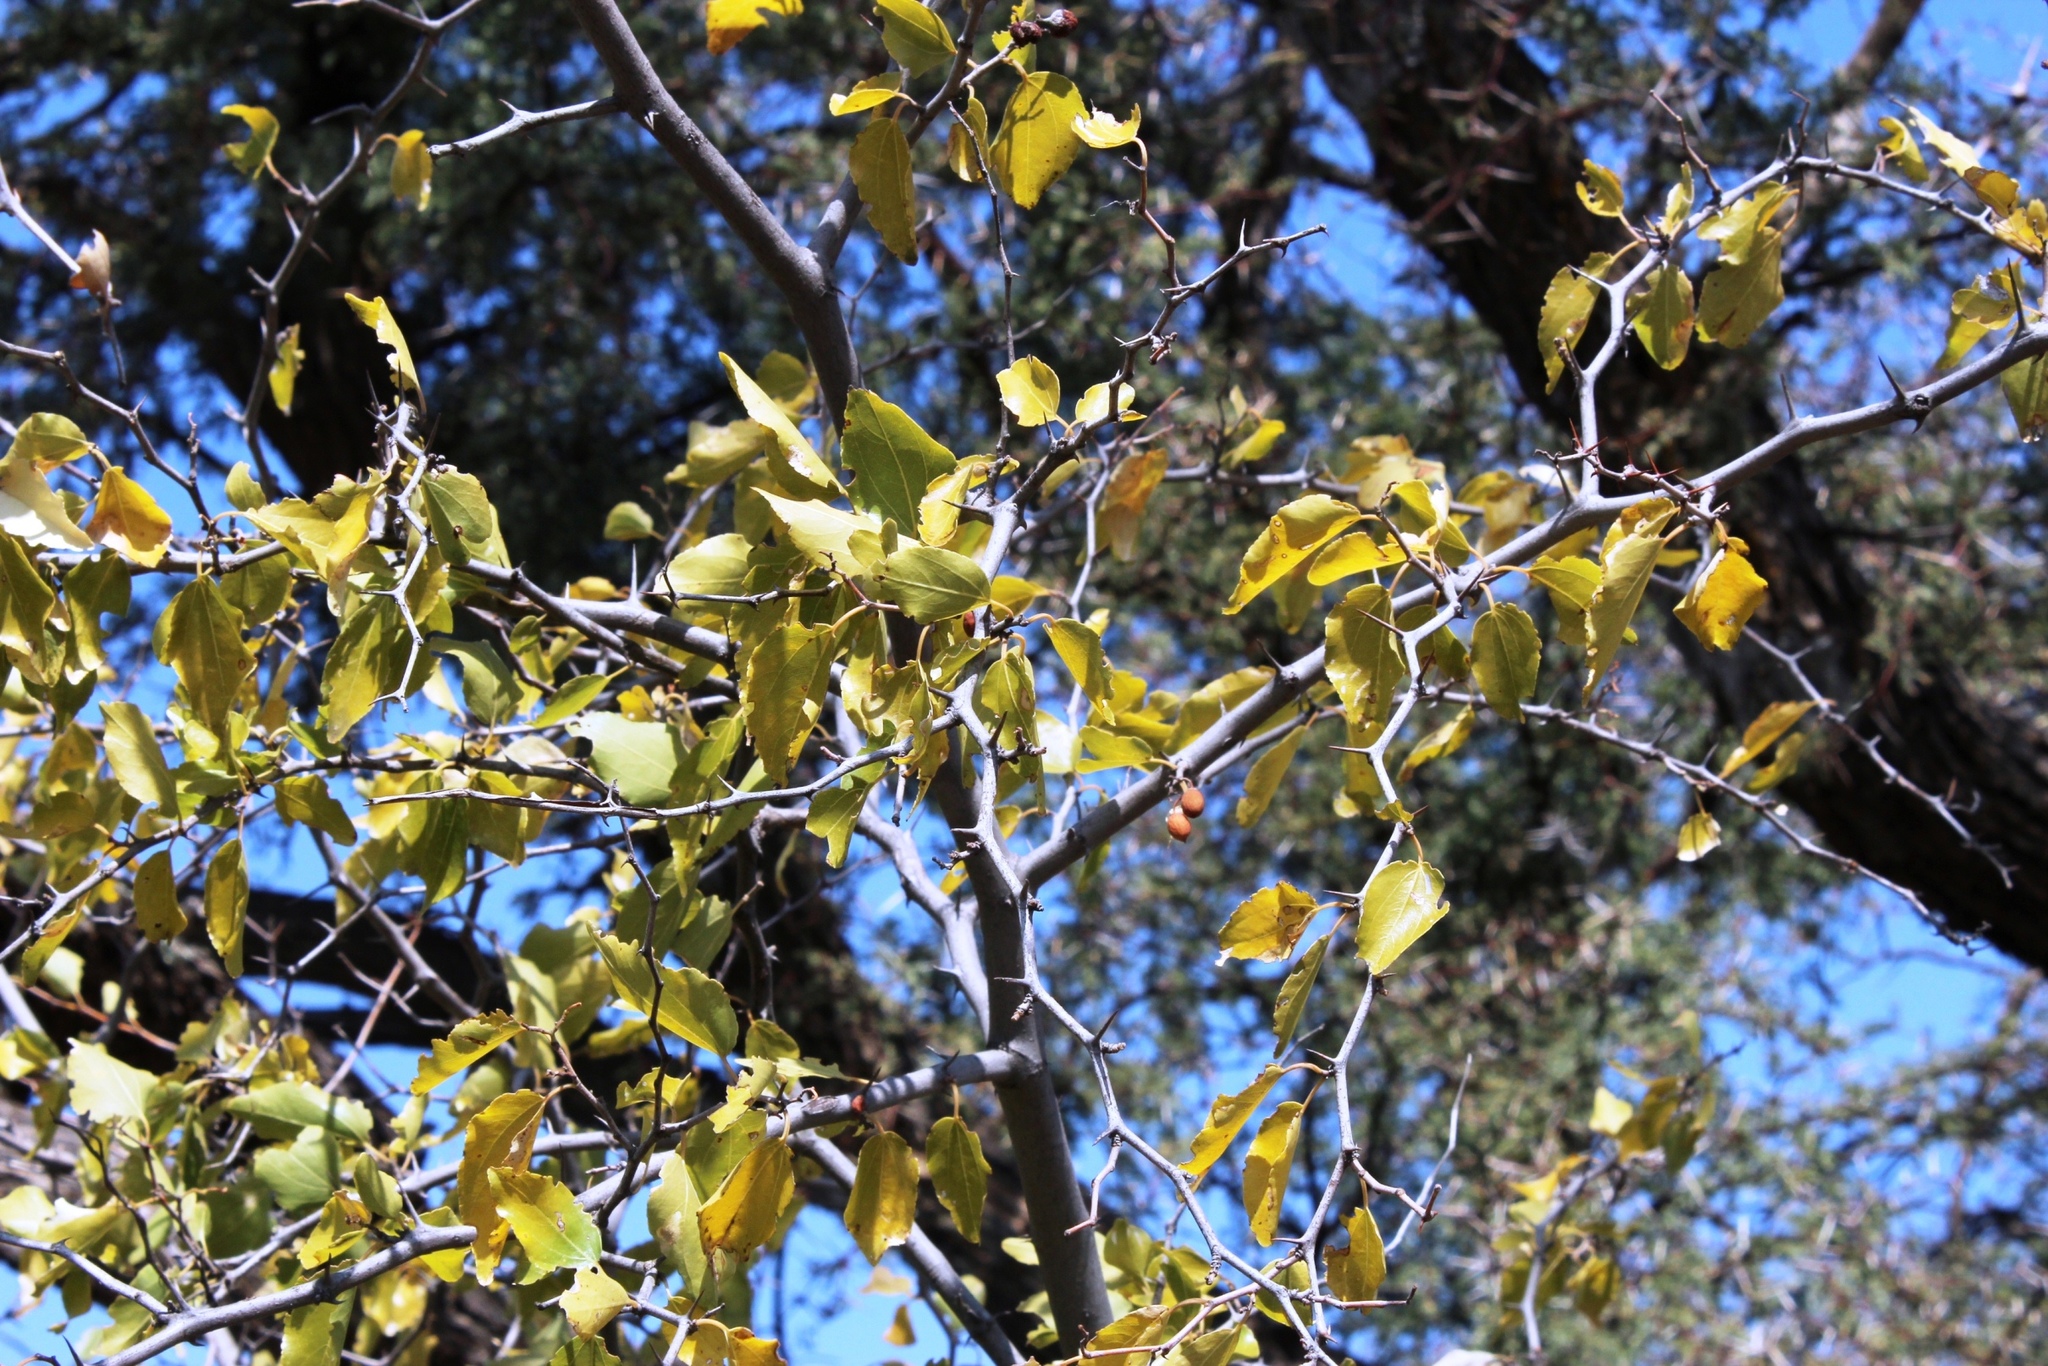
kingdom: Plantae
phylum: Tracheophyta
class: Magnoliopsida
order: Rosales
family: Rhamnaceae
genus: Ziziphus
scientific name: Ziziphus mucronata
